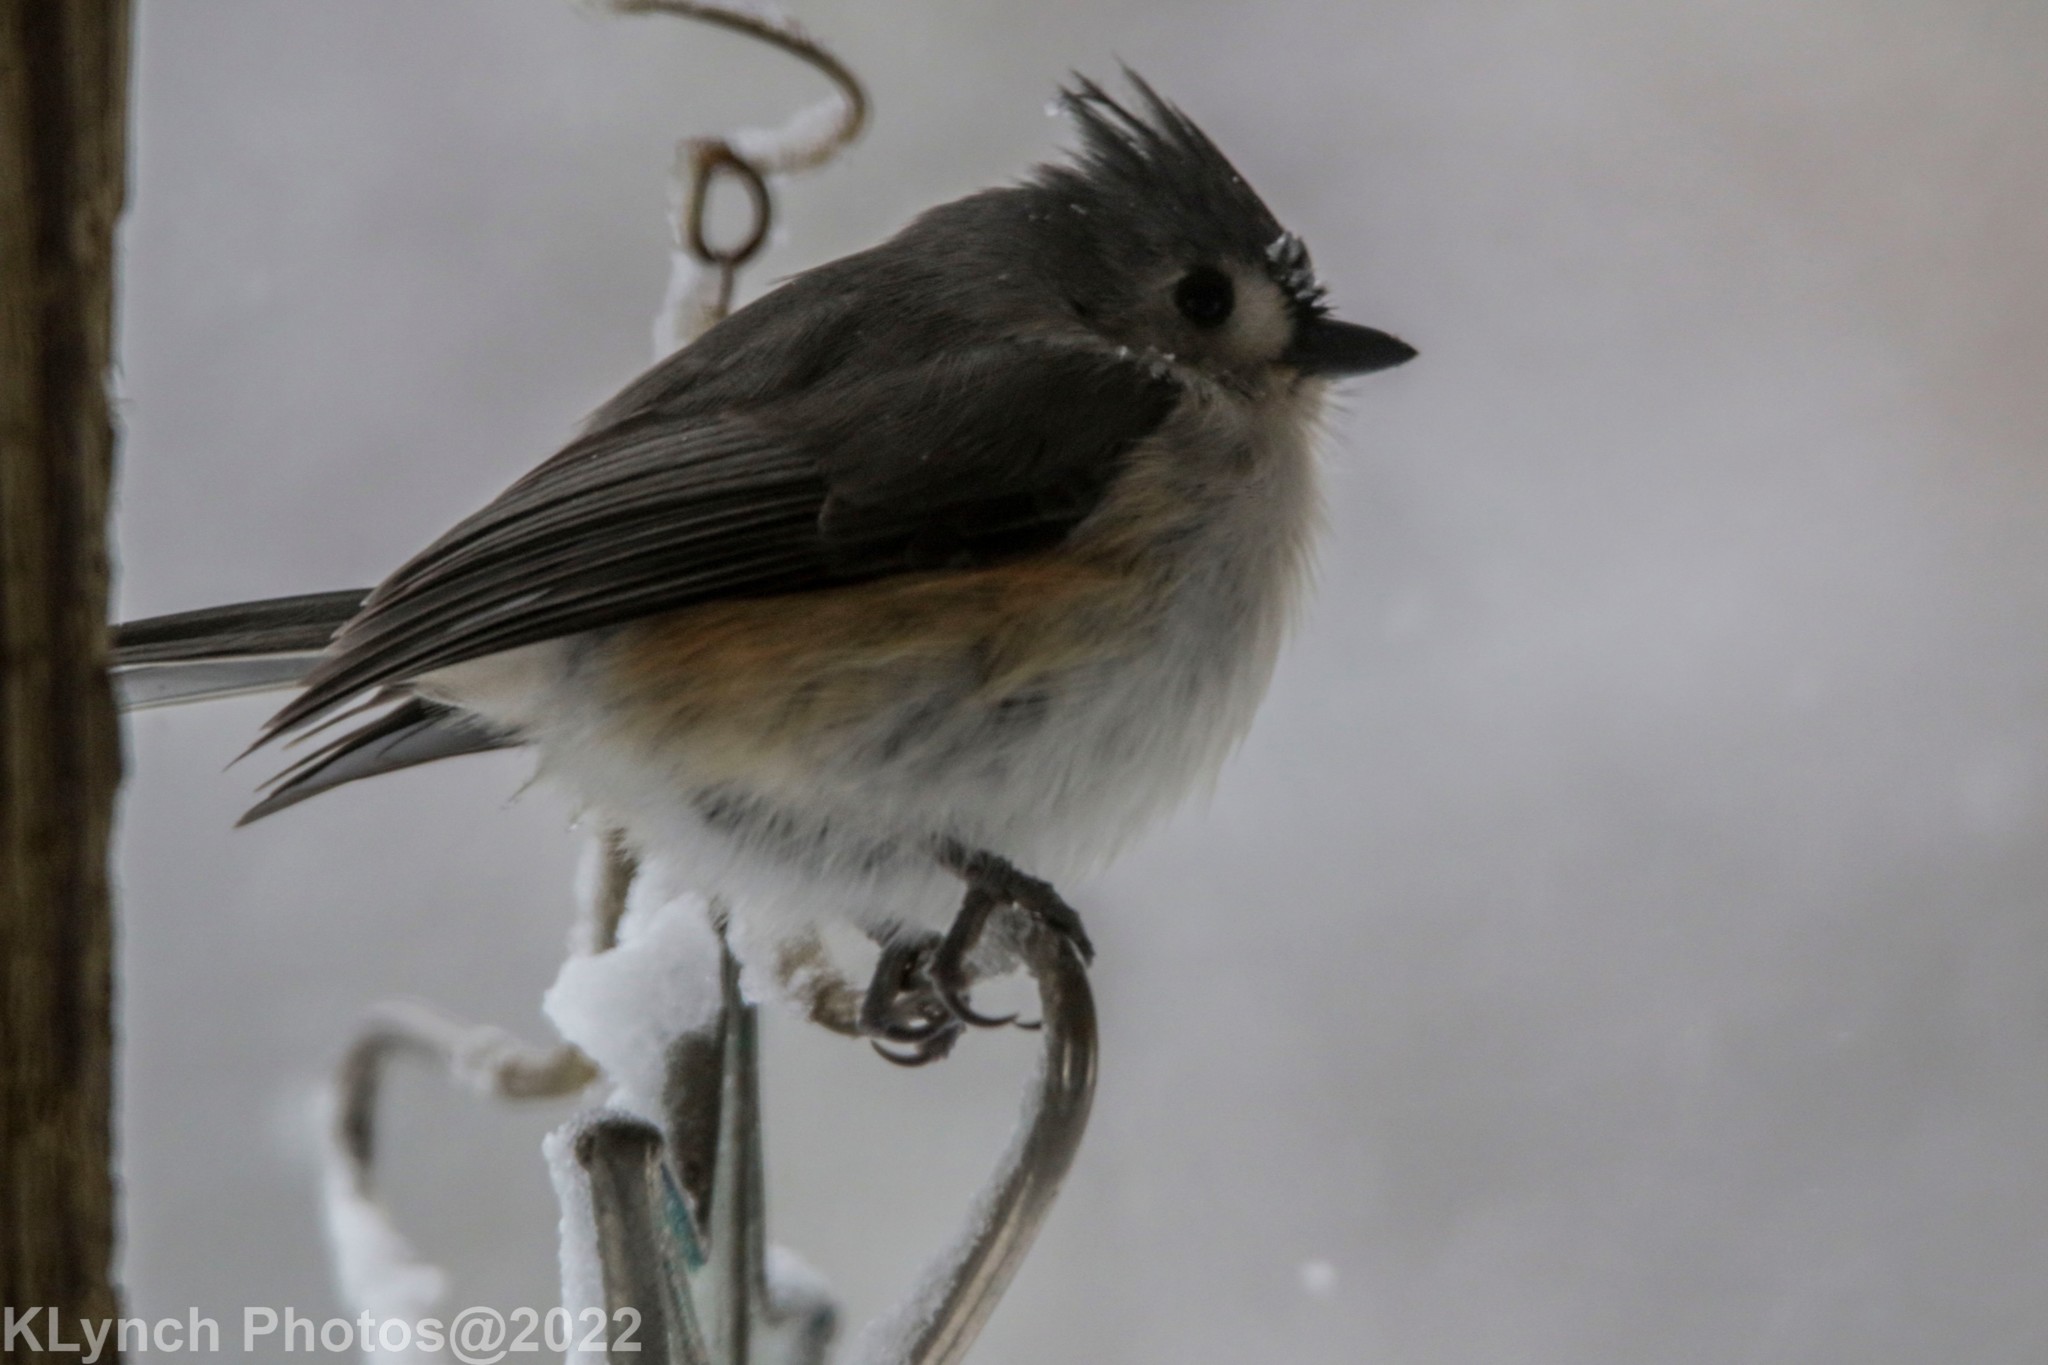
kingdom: Animalia
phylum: Chordata
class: Aves
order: Passeriformes
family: Paridae
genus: Baeolophus
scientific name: Baeolophus bicolor
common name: Tufted titmouse
